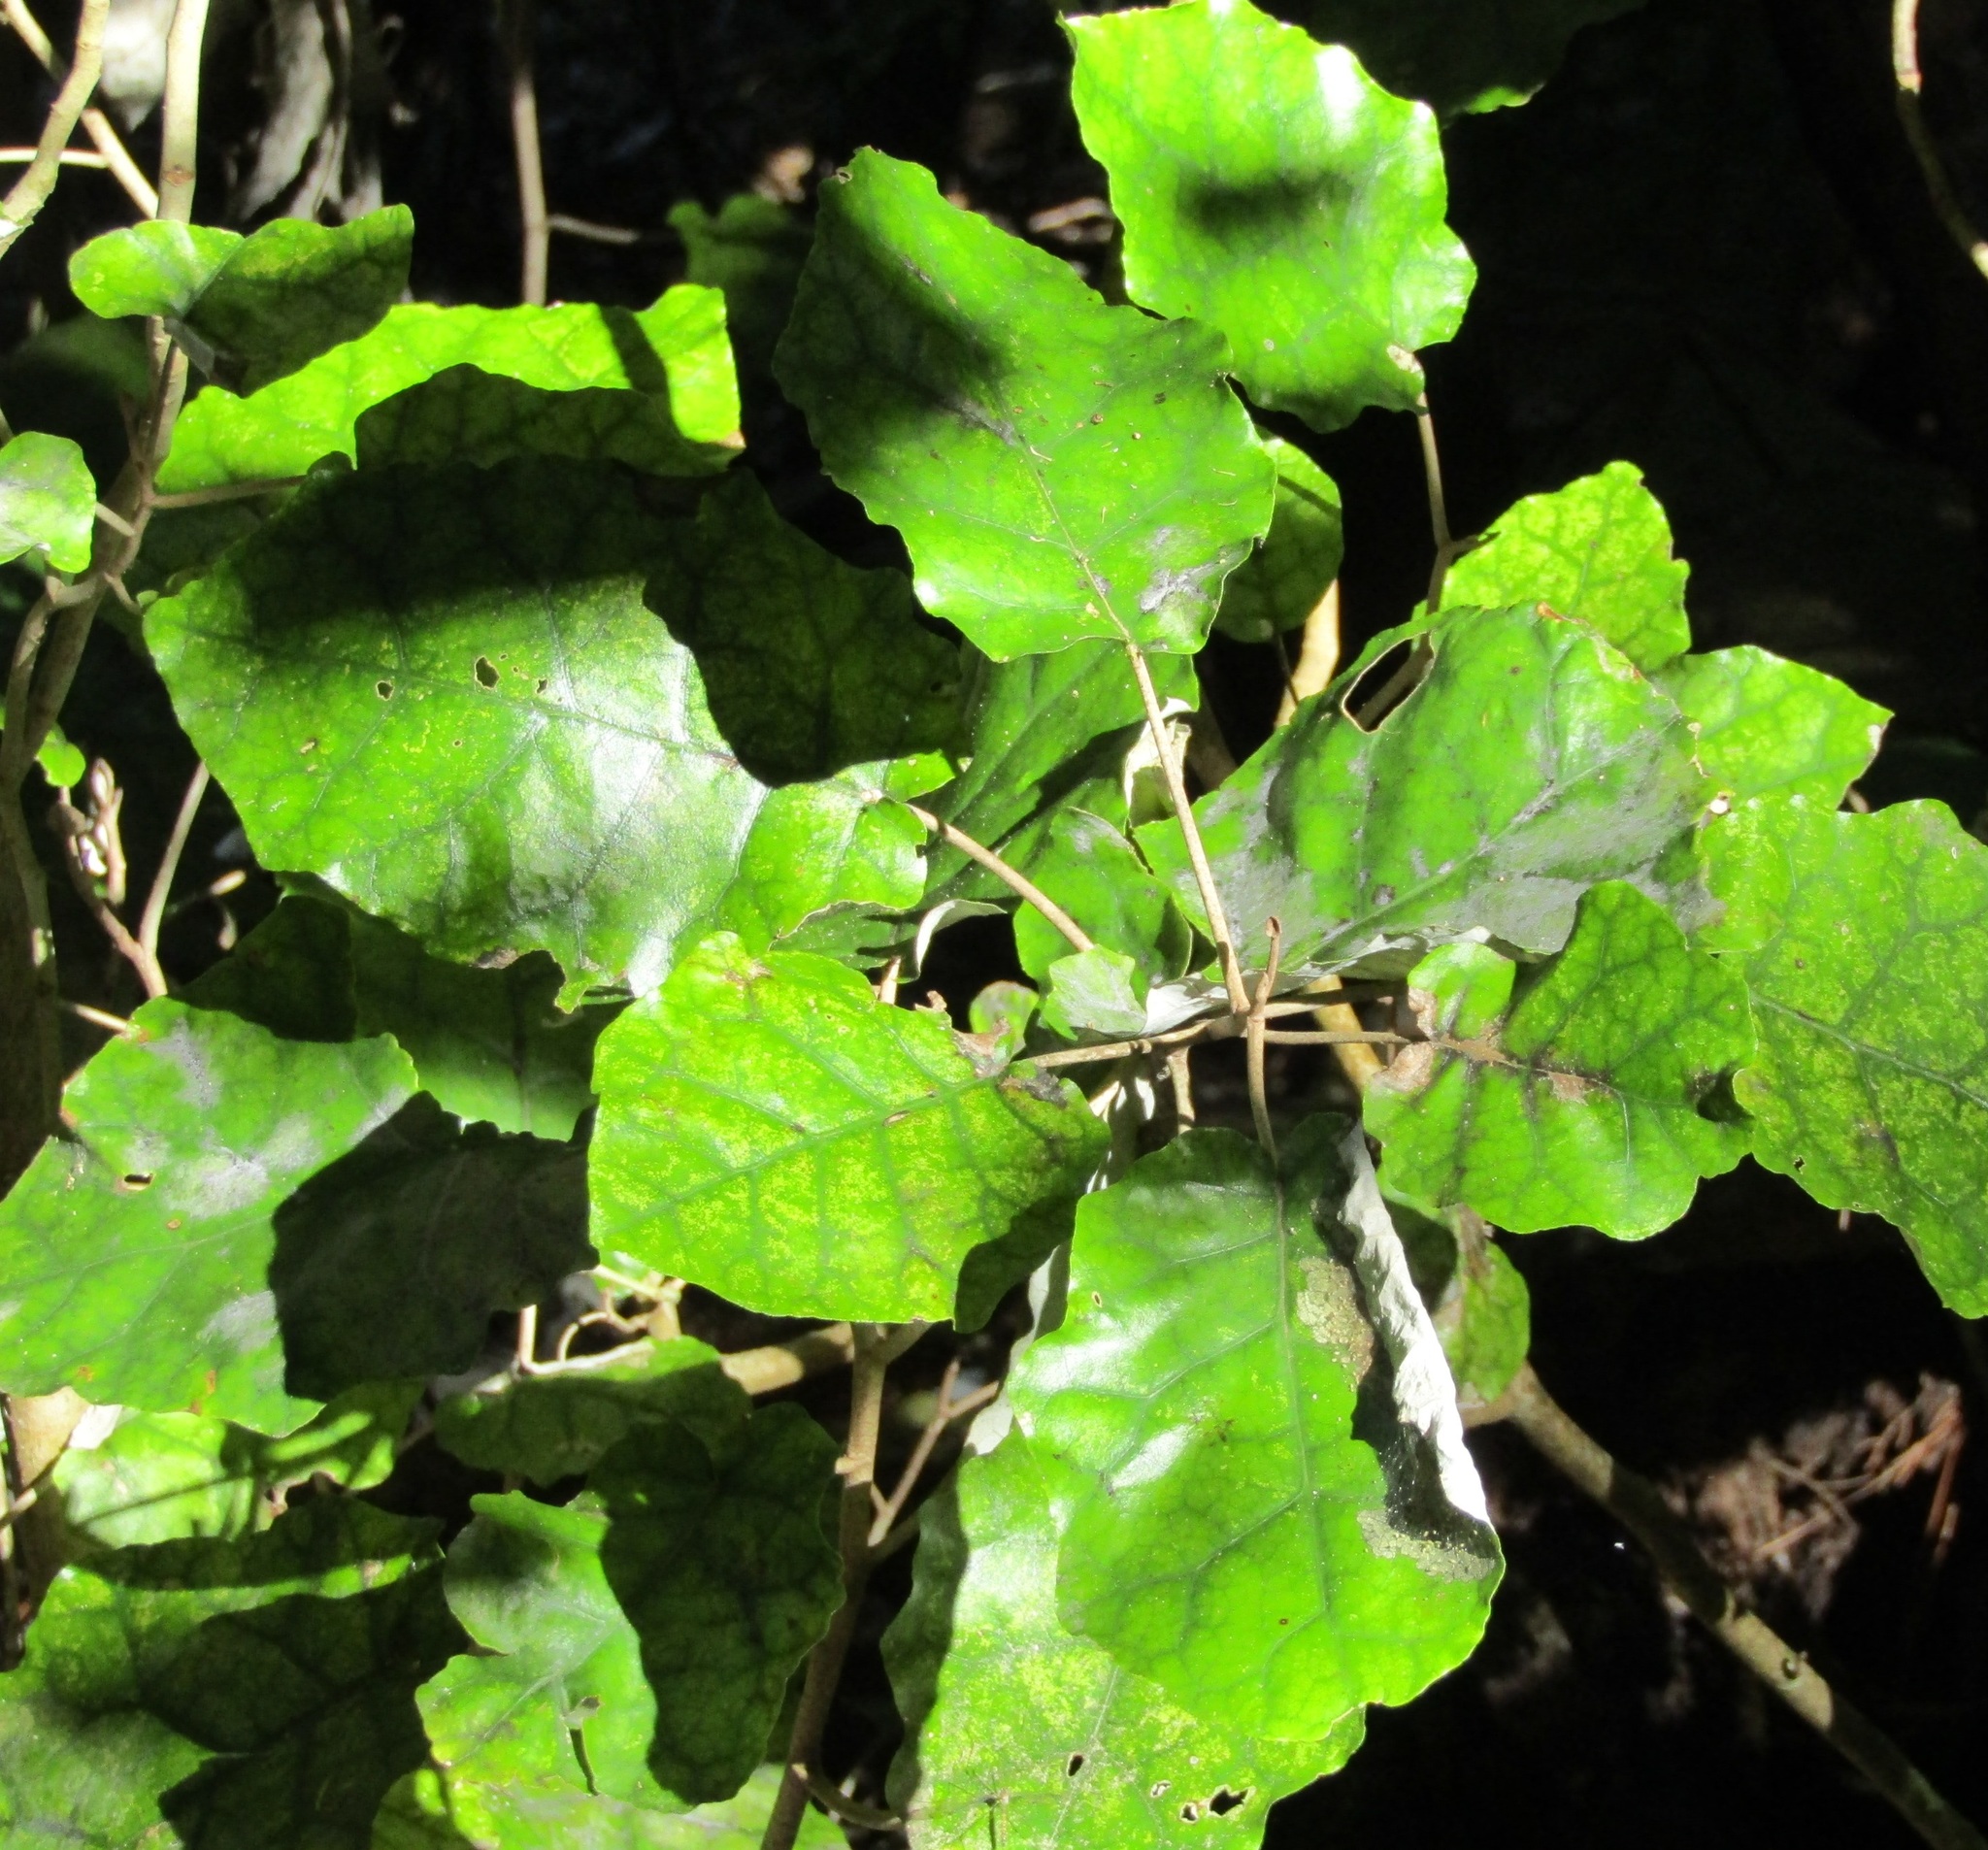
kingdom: Plantae
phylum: Tracheophyta
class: Magnoliopsida
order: Asterales
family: Asteraceae
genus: Brachyglottis
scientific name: Brachyglottis repanda
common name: Hedge ragwort
